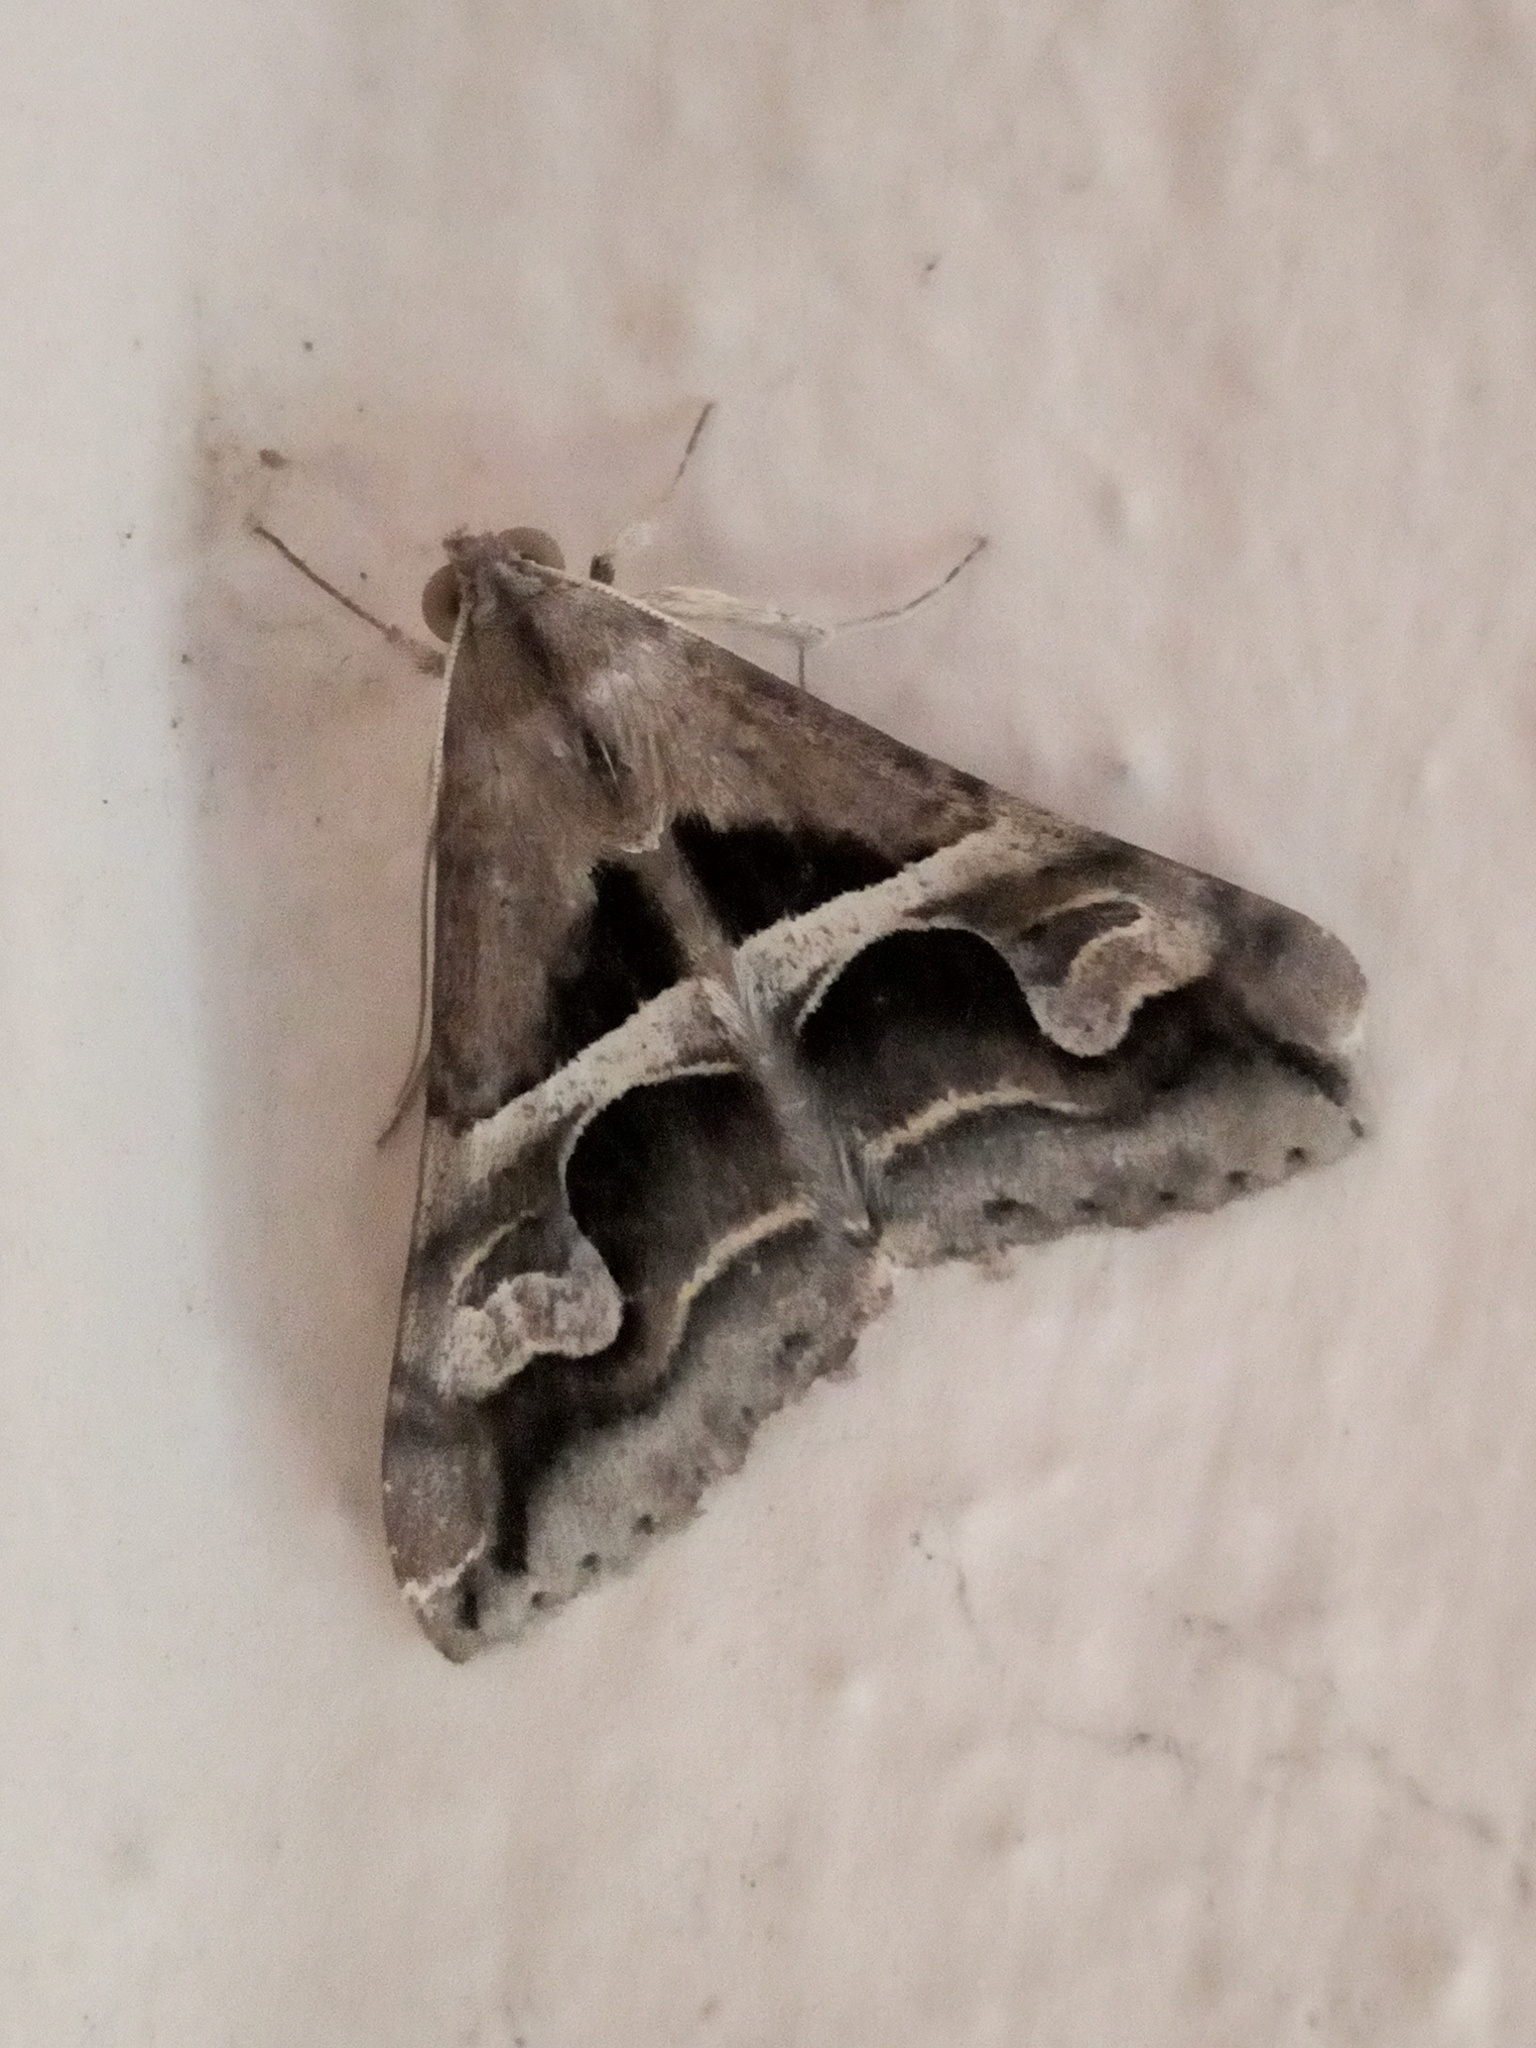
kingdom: Animalia
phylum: Arthropoda
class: Insecta
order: Lepidoptera
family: Erebidae
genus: Melipotis
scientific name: Melipotis cellaris
